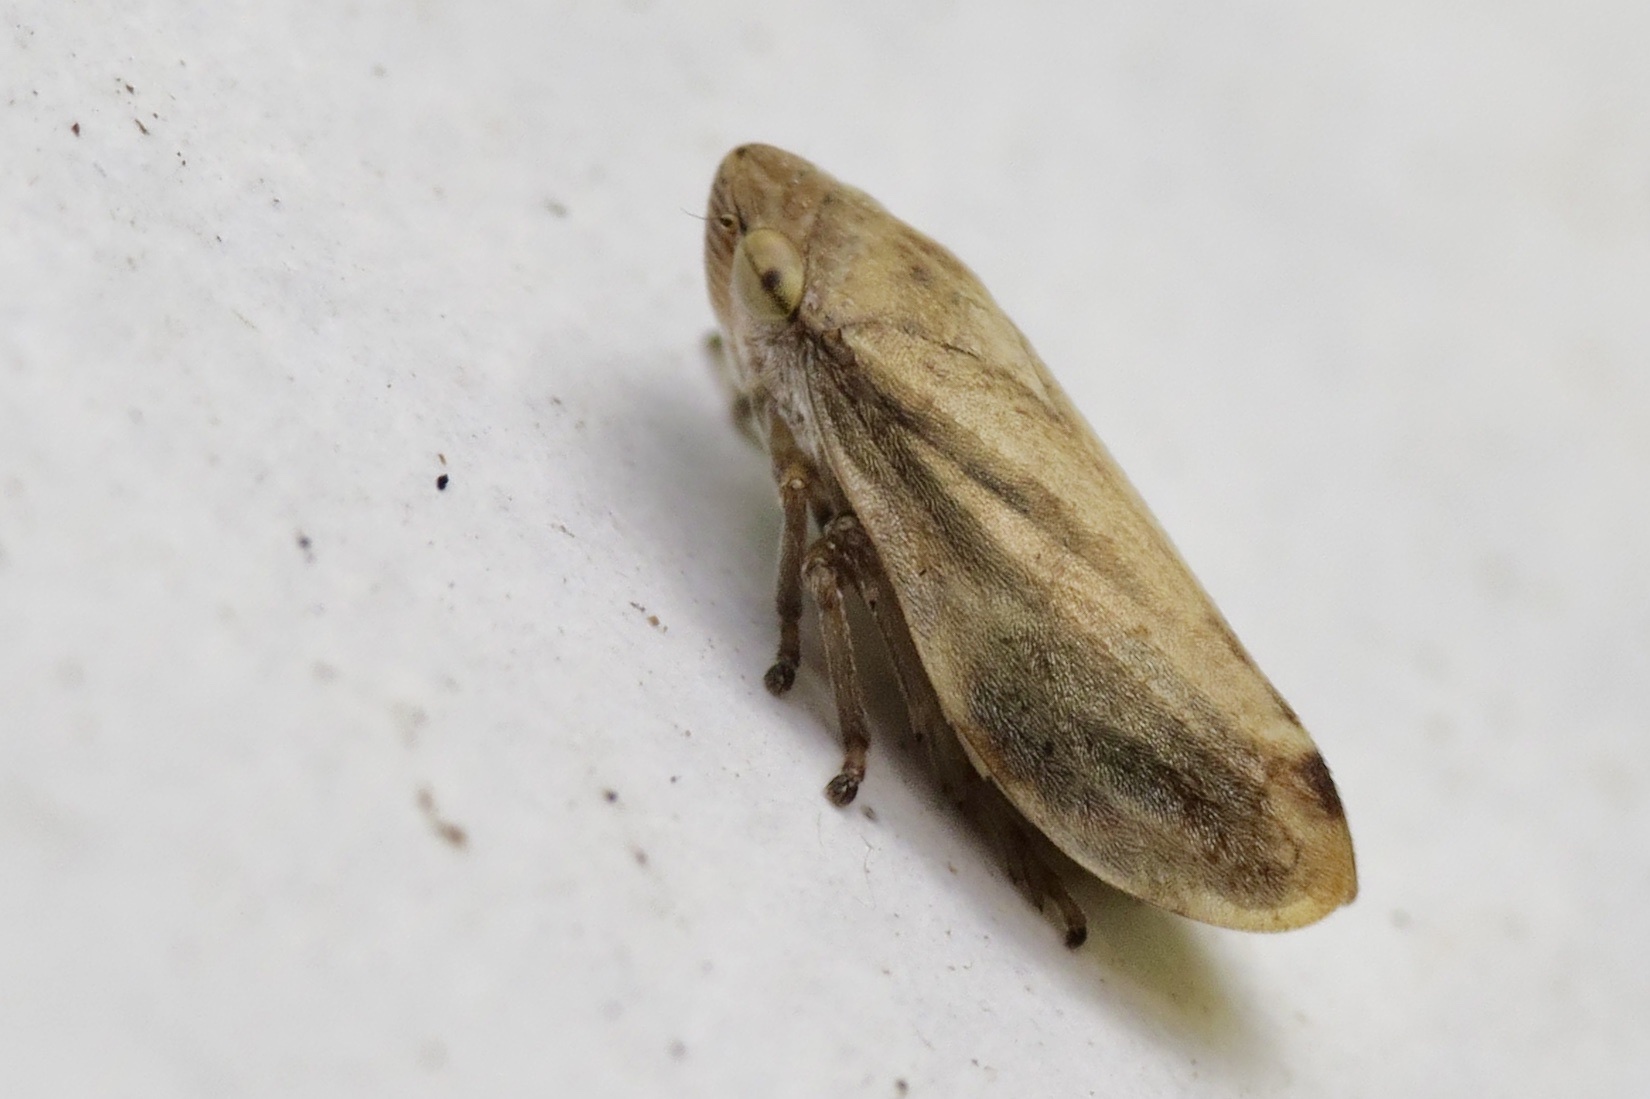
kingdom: Animalia
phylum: Arthropoda
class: Insecta
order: Hemiptera
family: Aphrophoridae
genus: Philaenus
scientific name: Philaenus spumarius
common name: Meadow spittlebug
